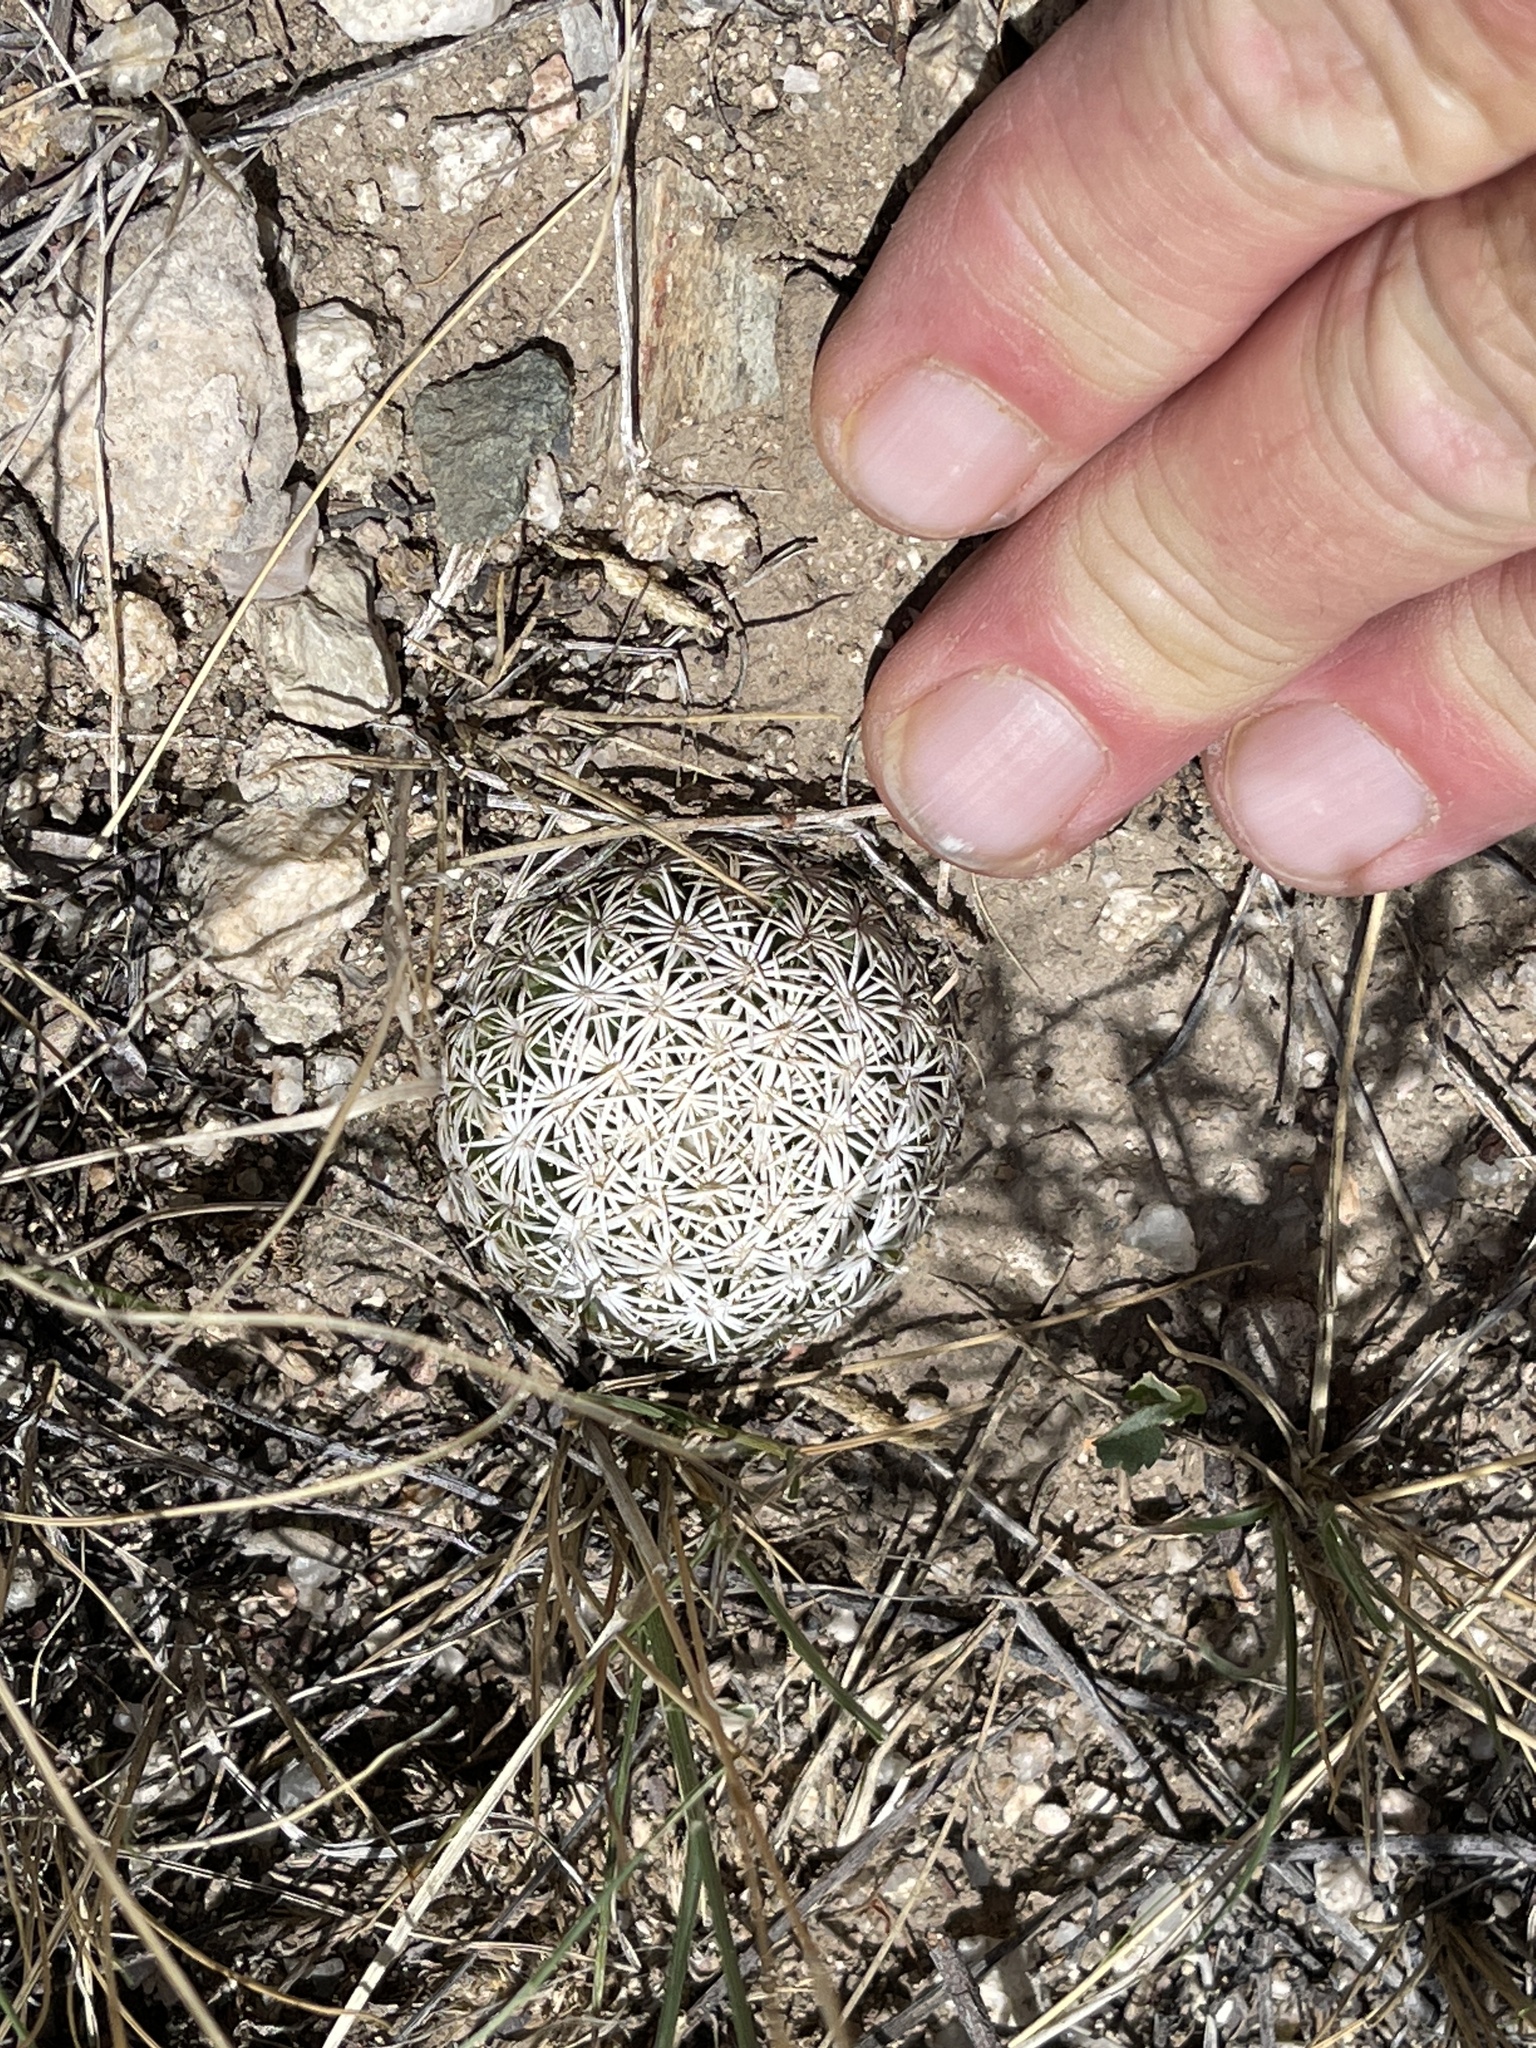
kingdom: Plantae
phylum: Tracheophyta
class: Magnoliopsida
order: Caryophyllales
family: Cactaceae
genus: Sclerocactus
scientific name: Sclerocactus johnsonii
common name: Eight-spine fishhook cactus
